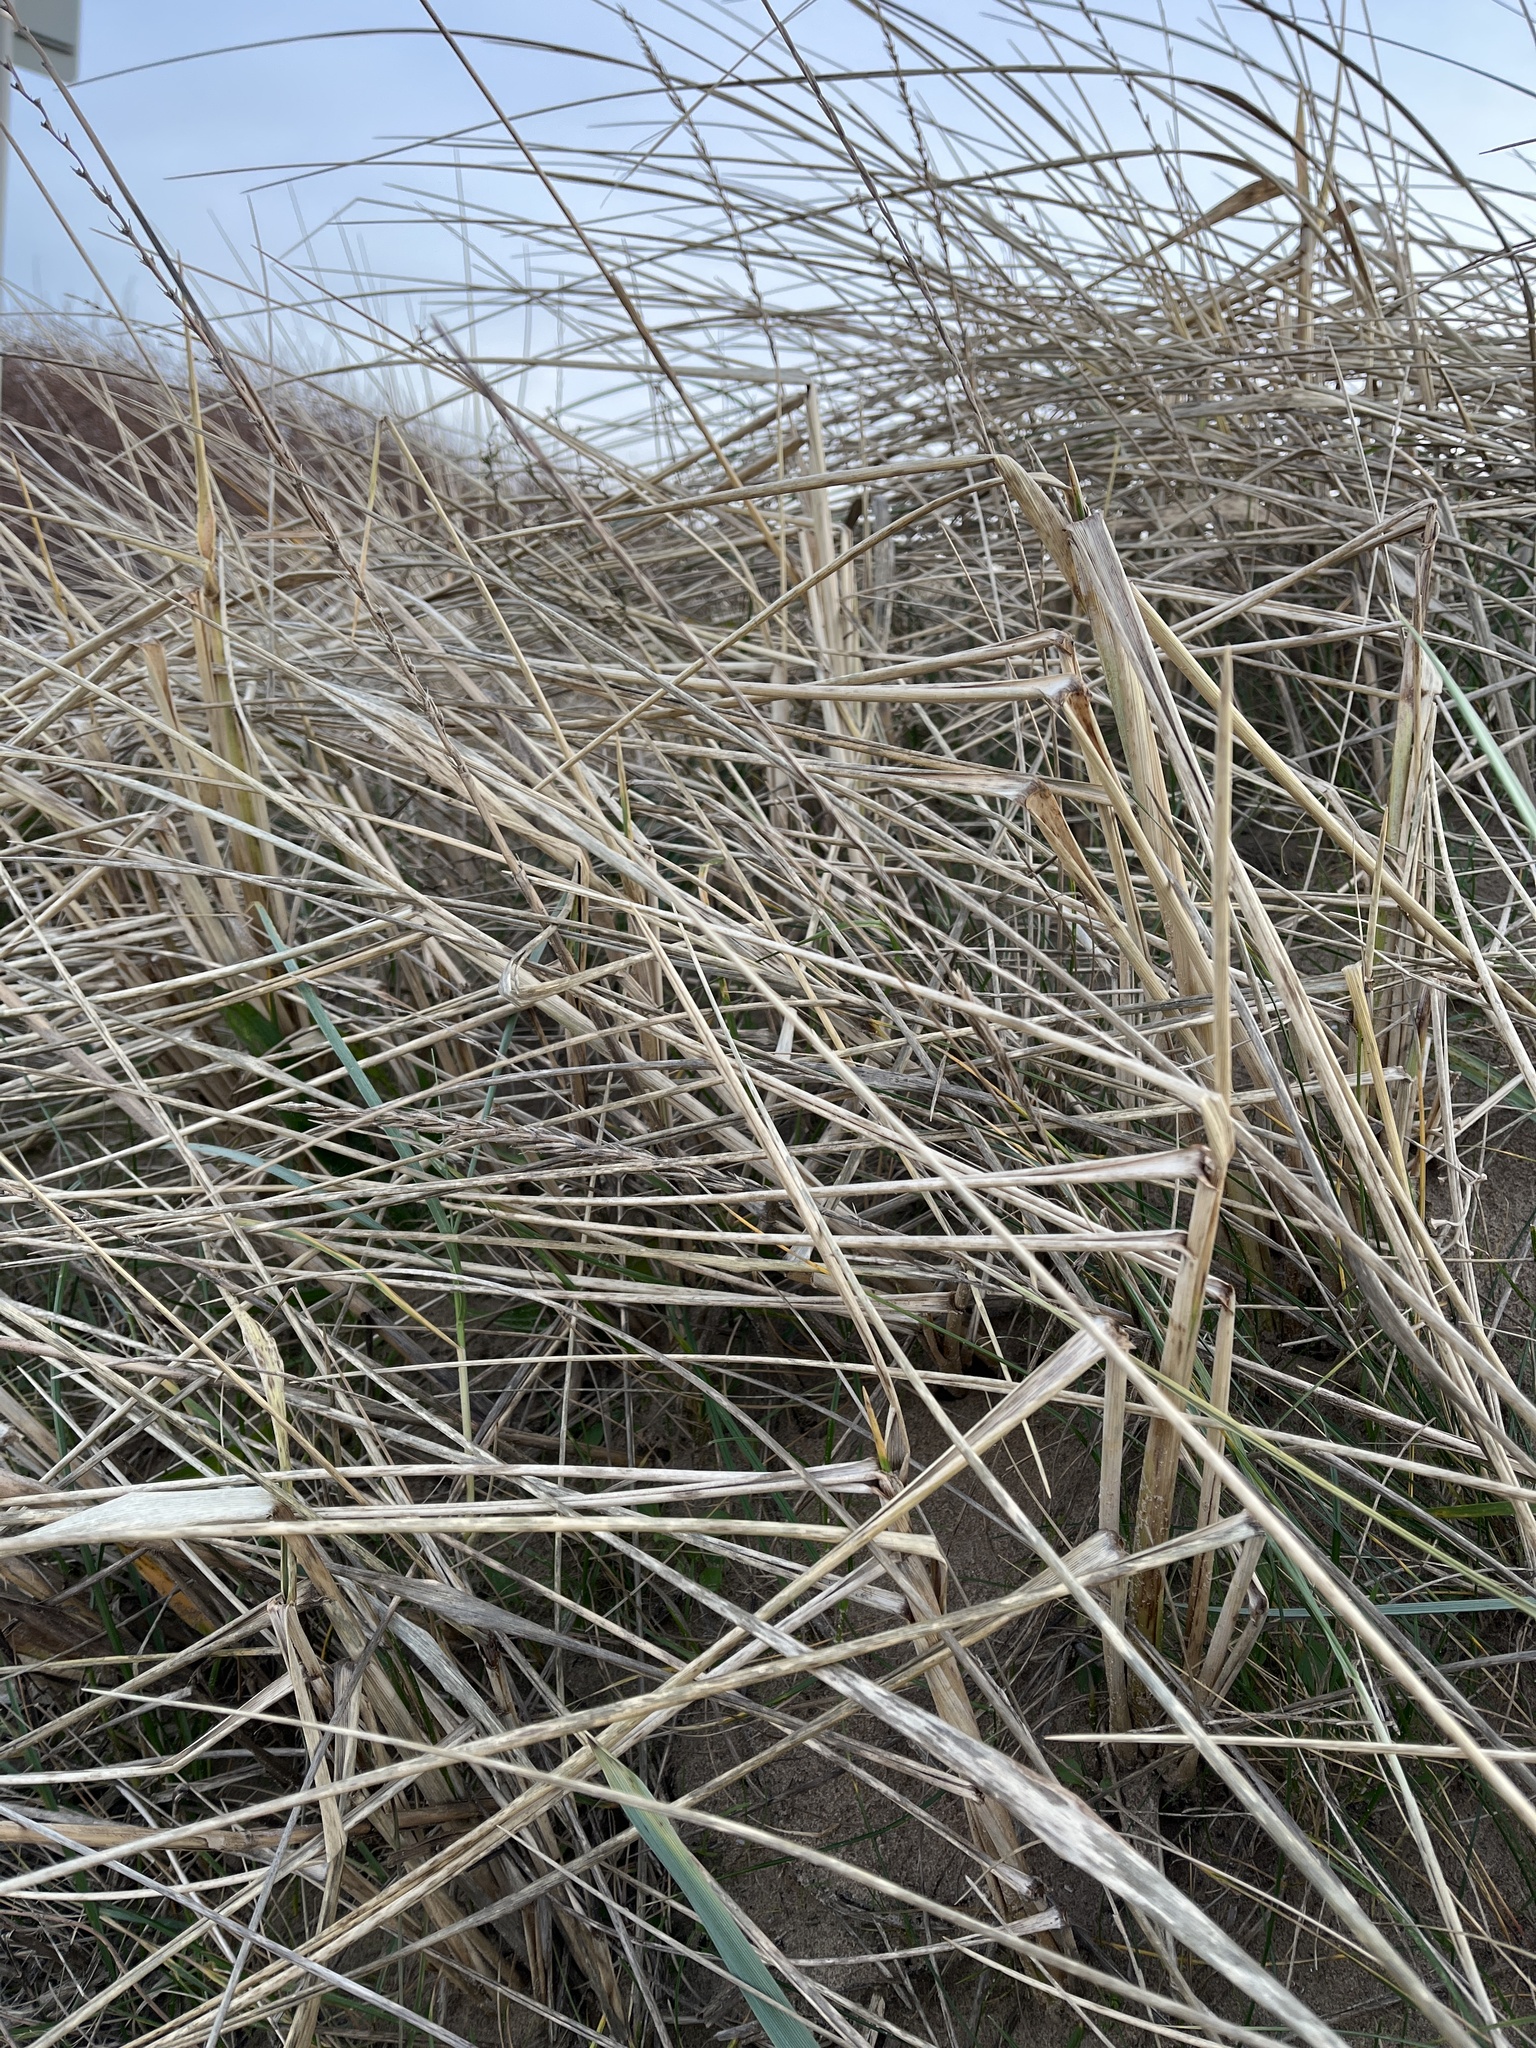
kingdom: Plantae
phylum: Tracheophyta
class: Liliopsida
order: Poales
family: Poaceae
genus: Leymus
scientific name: Leymus arenarius
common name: Lyme-grass
